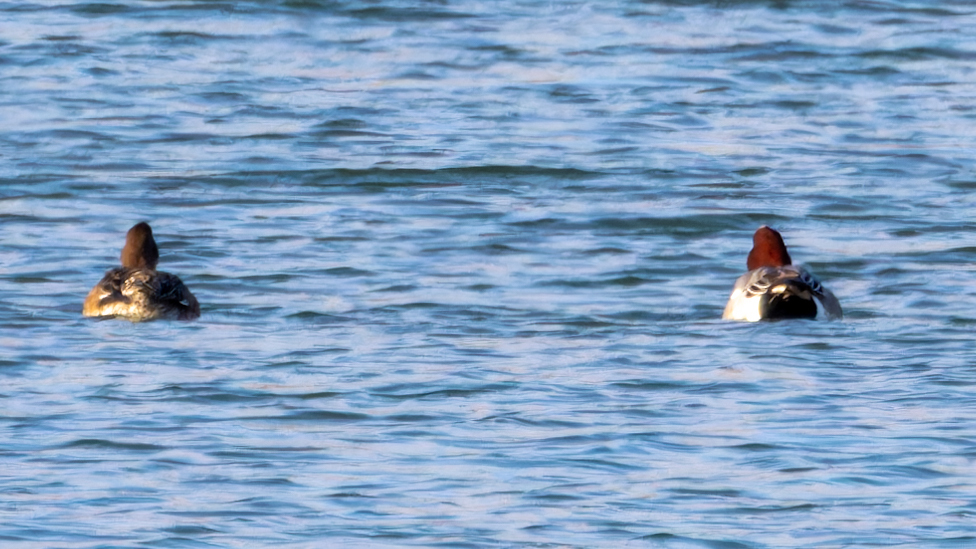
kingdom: Animalia
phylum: Chordata
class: Aves
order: Anseriformes
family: Anatidae
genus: Mareca
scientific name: Mareca penelope
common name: Eurasian wigeon
